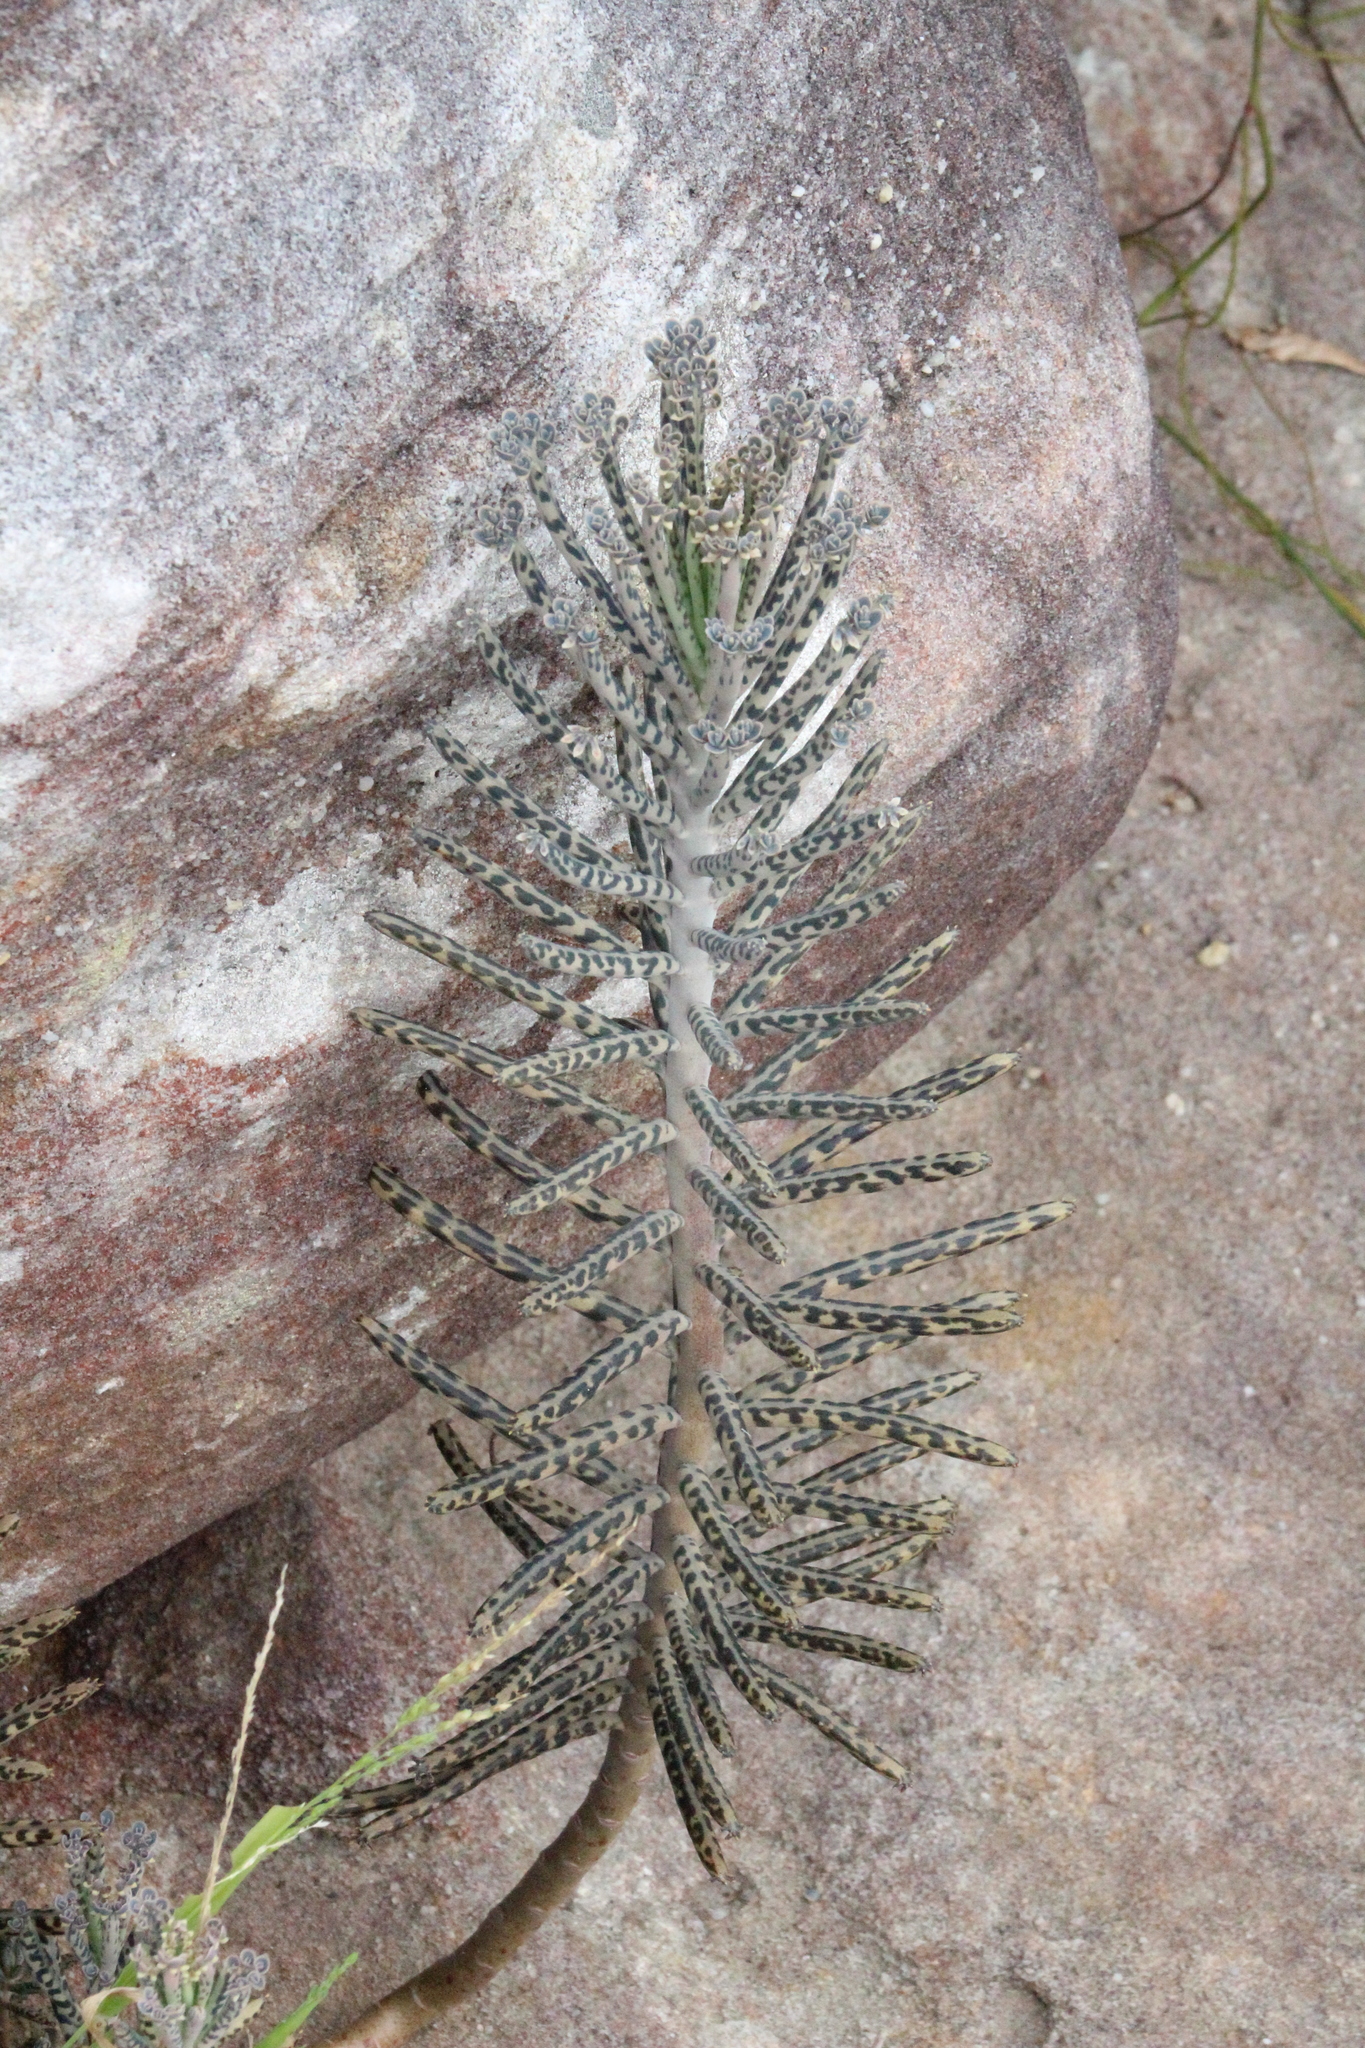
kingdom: Plantae
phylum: Tracheophyta
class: Magnoliopsida
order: Saxifragales
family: Crassulaceae
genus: Kalanchoe
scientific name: Kalanchoe delagoensis
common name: Chandelier plant
